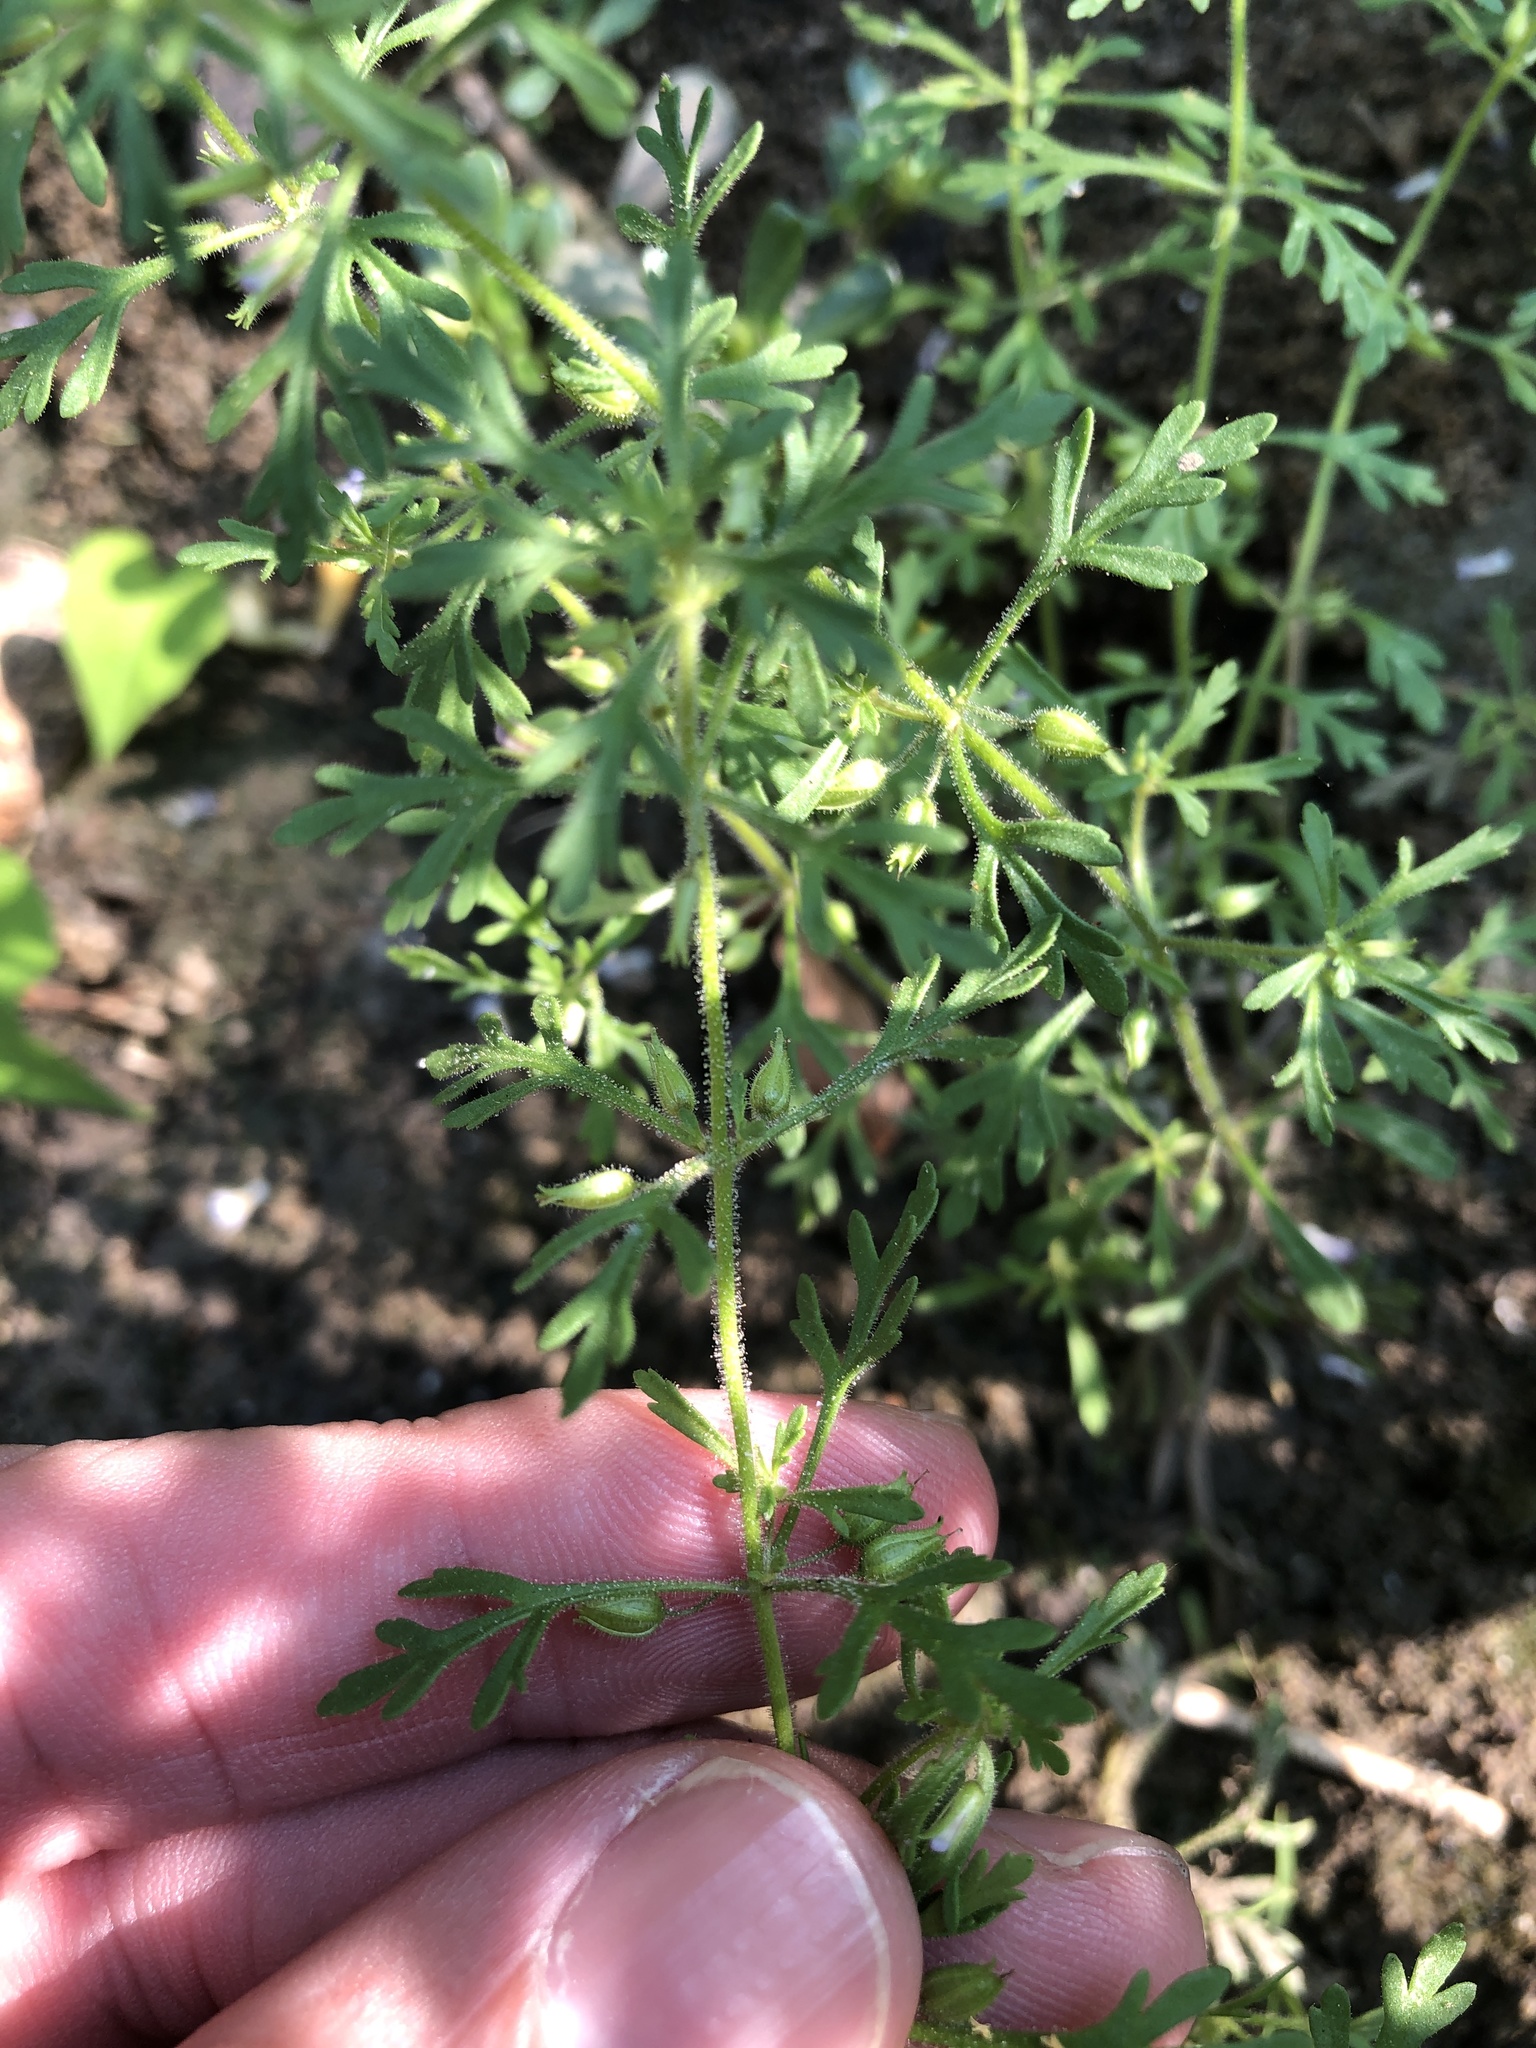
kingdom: Plantae
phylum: Tracheophyta
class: Magnoliopsida
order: Lamiales
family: Plantaginaceae
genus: Leucospora
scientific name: Leucospora multifida
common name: Narrow-leaf paleseed
